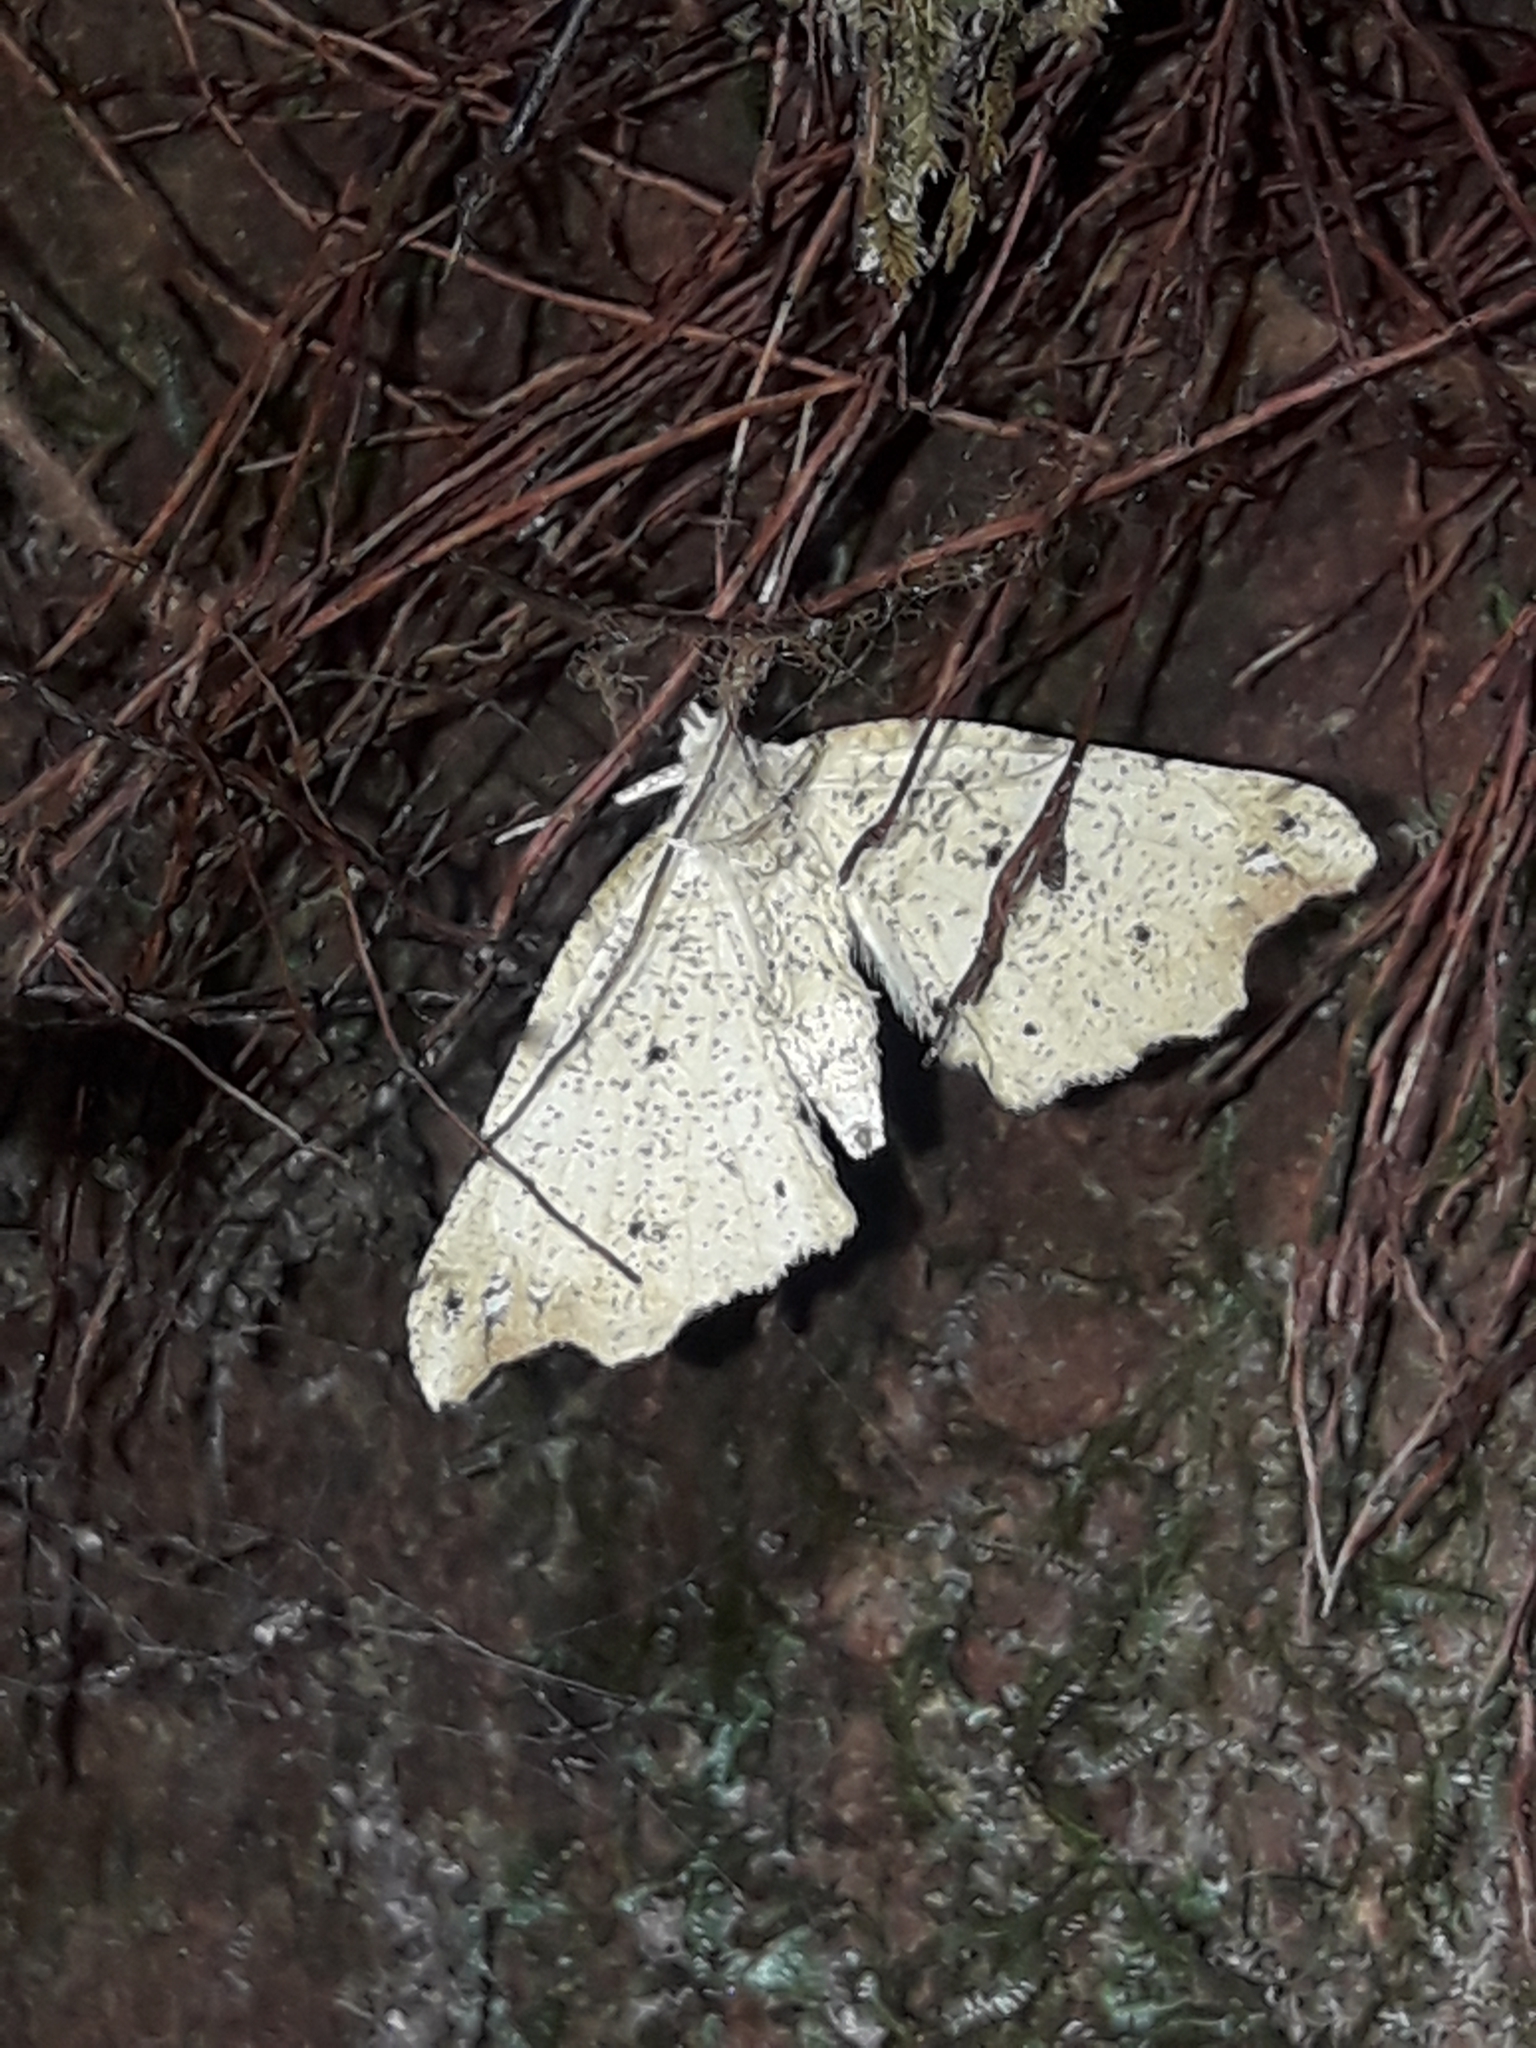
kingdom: Animalia
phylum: Arthropoda
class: Insecta
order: Lepidoptera
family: Geometridae
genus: Chalastra
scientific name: Chalastra pellurgata
